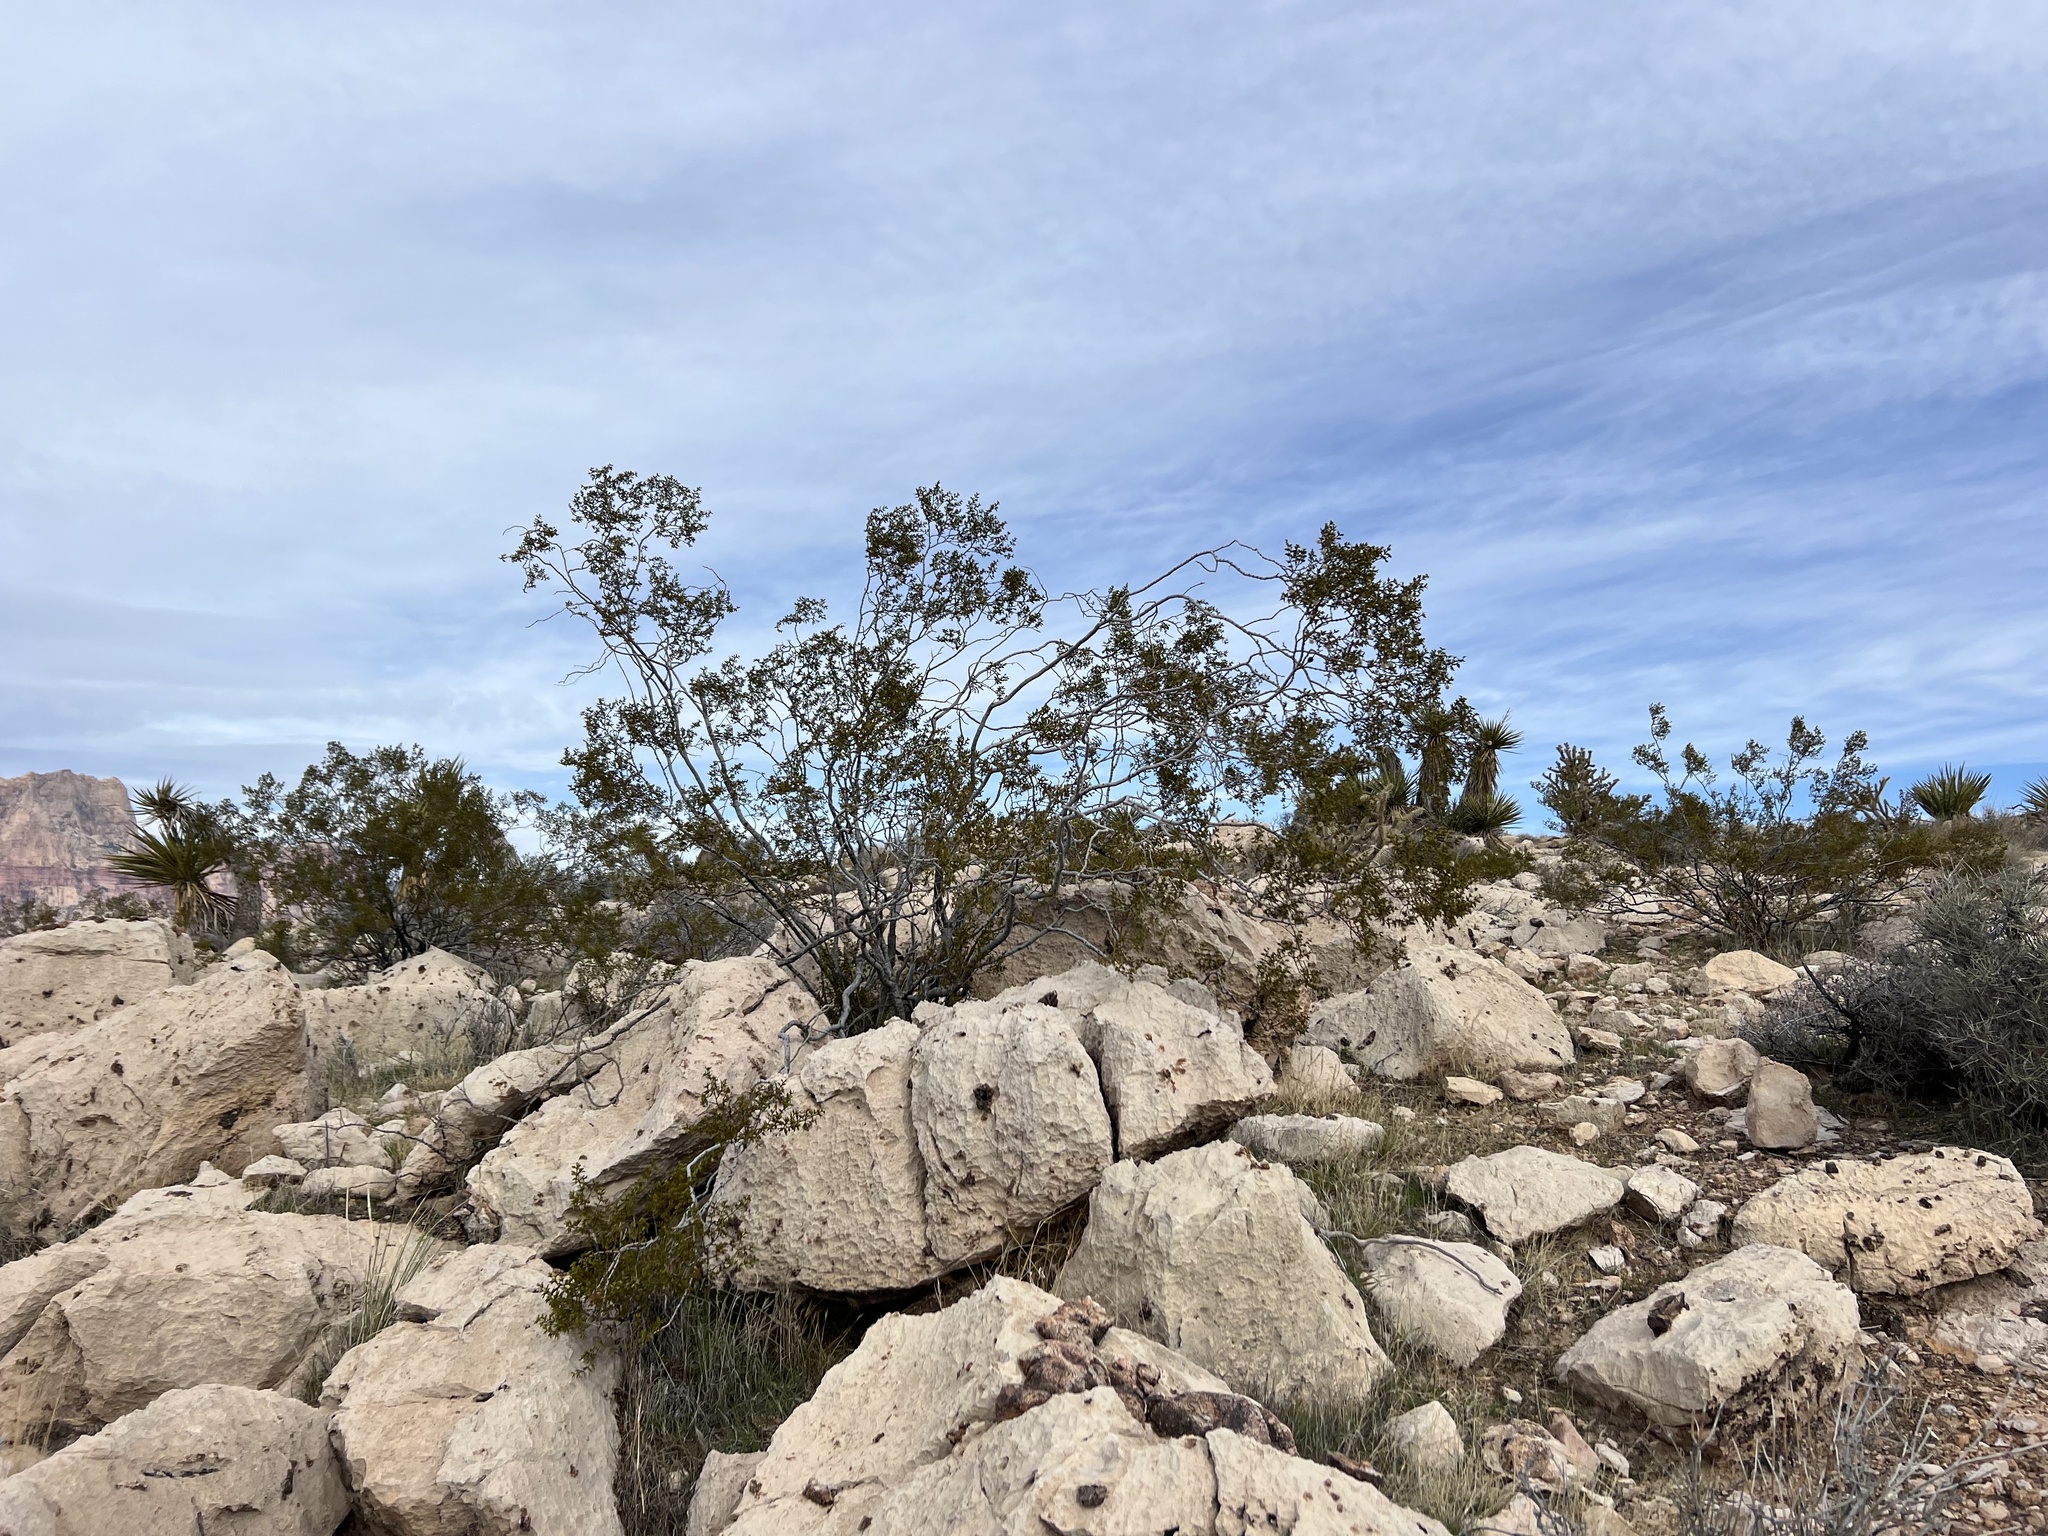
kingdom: Plantae
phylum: Tracheophyta
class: Magnoliopsida
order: Zygophyllales
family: Zygophyllaceae
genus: Larrea
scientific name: Larrea tridentata
